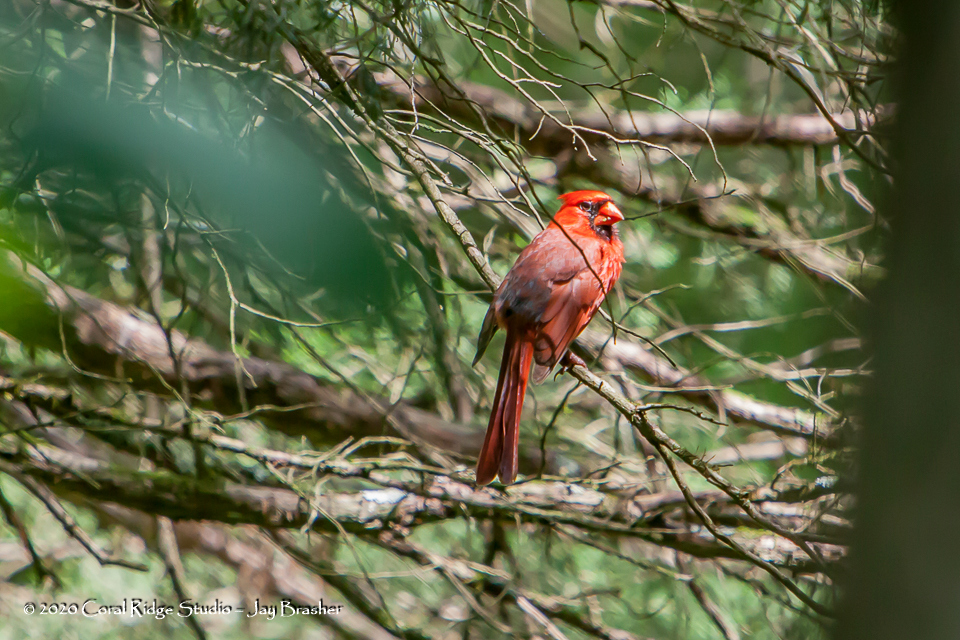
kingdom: Animalia
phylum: Chordata
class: Aves
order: Passeriformes
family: Cardinalidae
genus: Cardinalis
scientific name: Cardinalis cardinalis
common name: Northern cardinal
